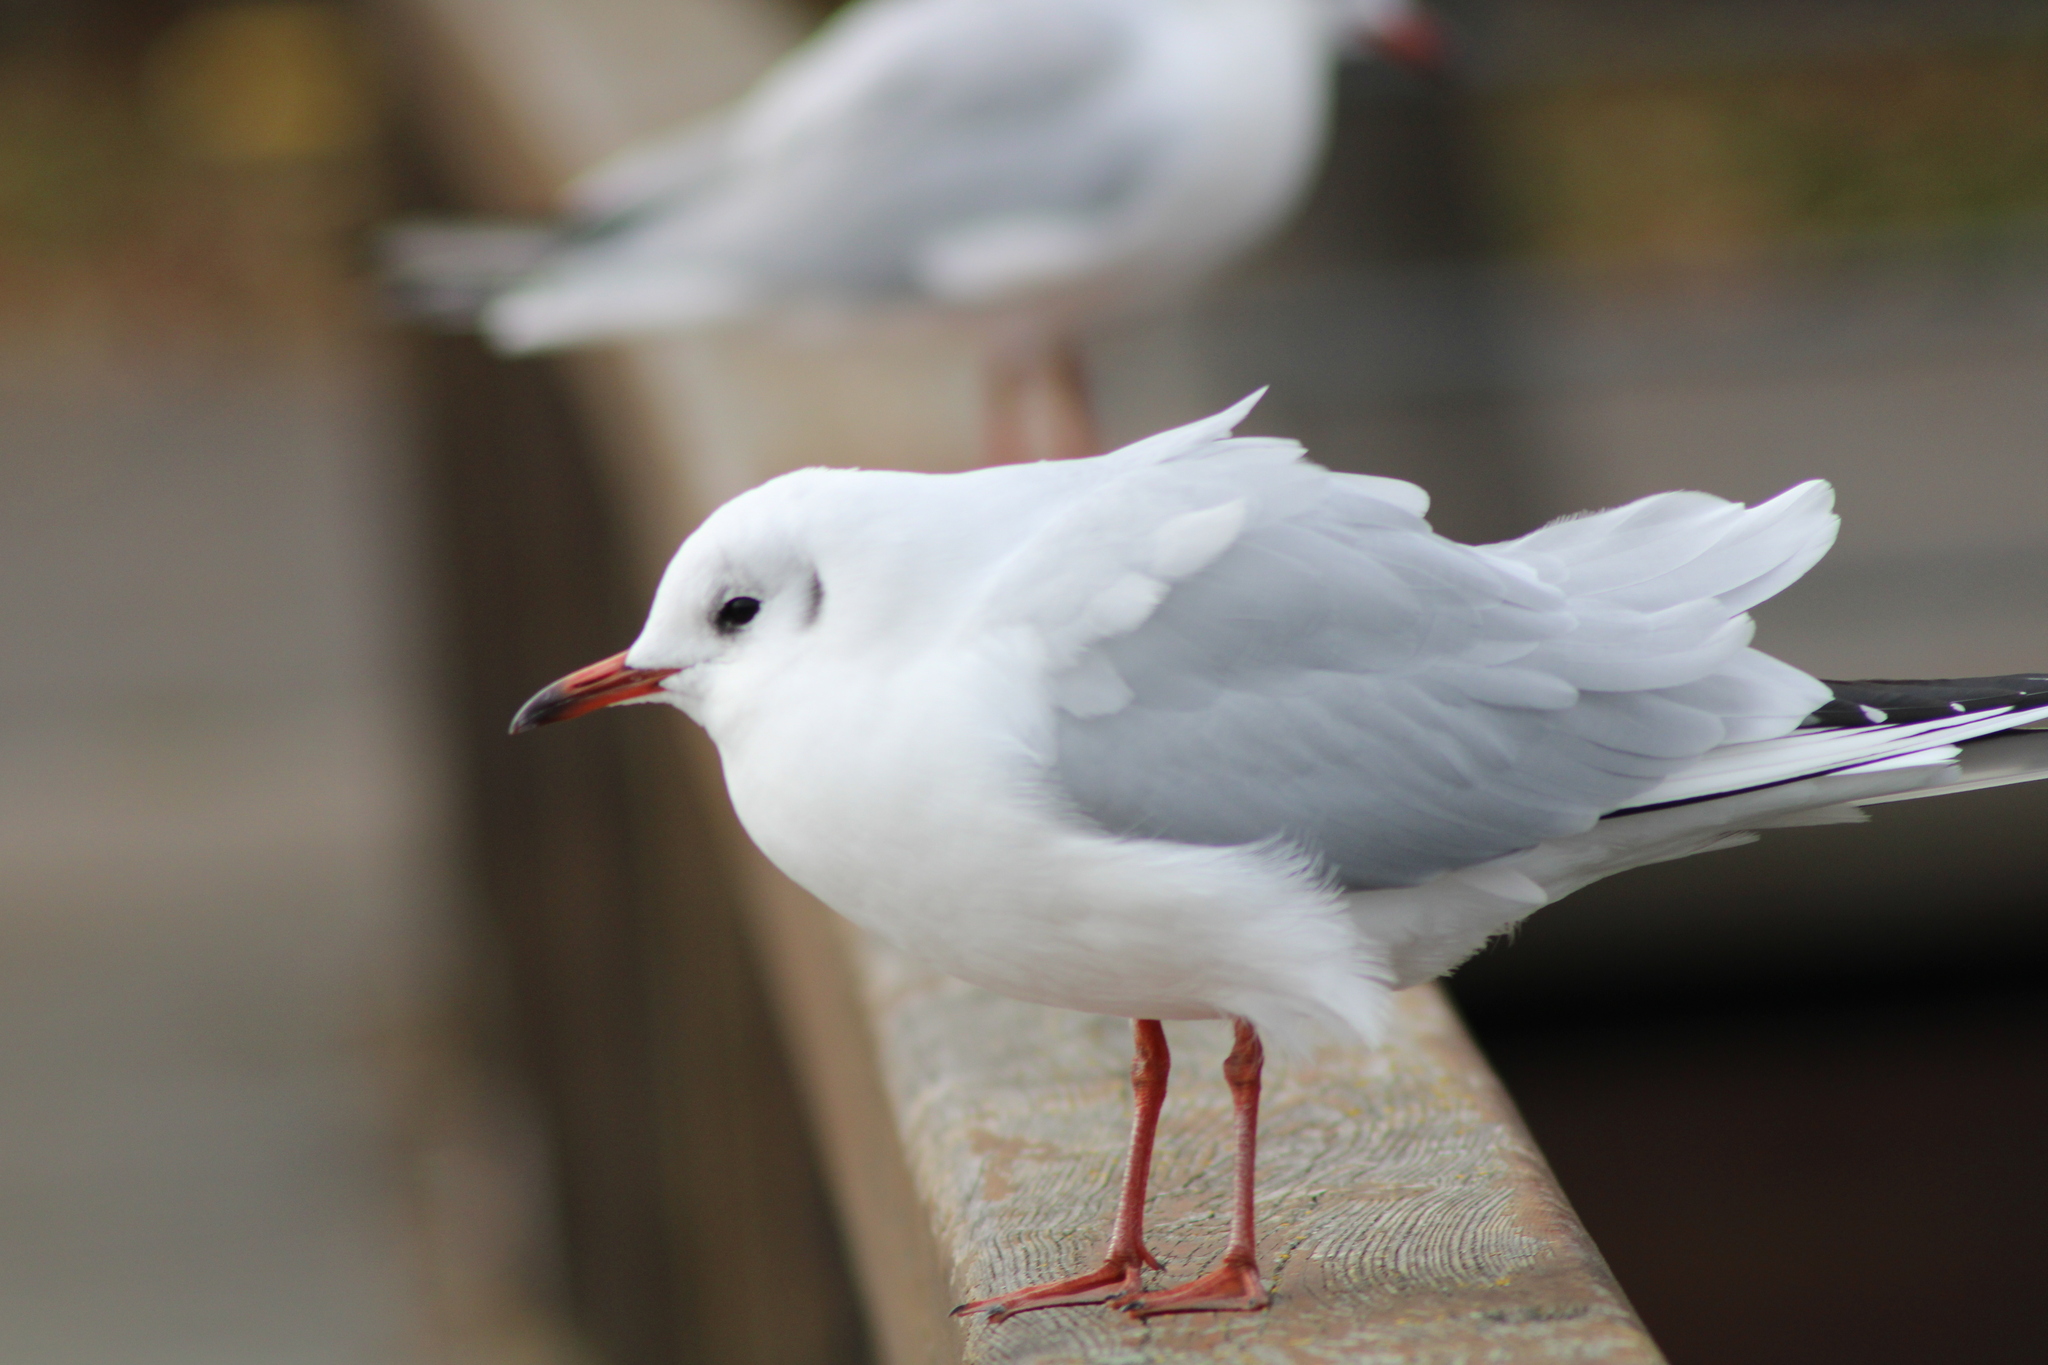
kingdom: Animalia
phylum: Chordata
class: Aves
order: Charadriiformes
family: Laridae
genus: Chroicocephalus
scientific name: Chroicocephalus ridibundus
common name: Black-headed gull
